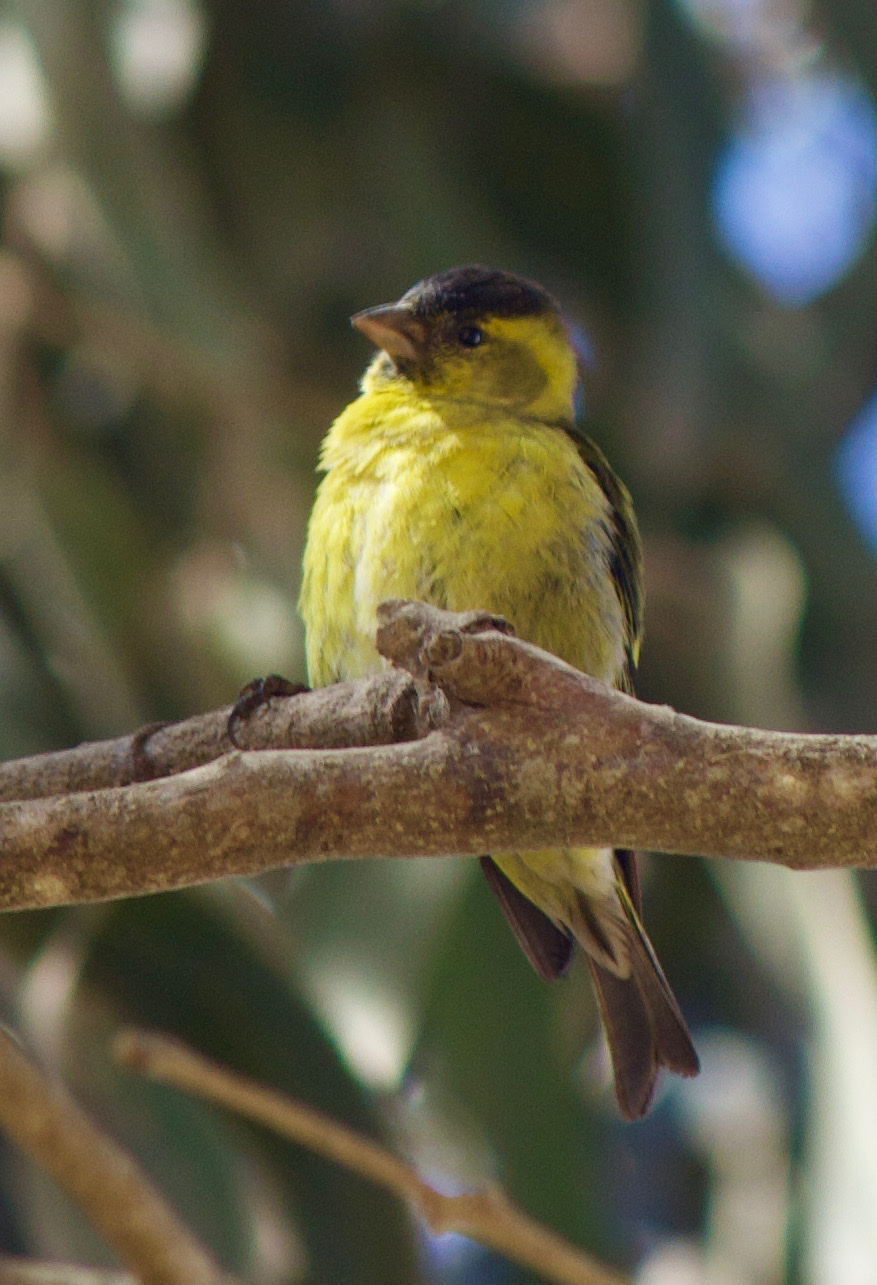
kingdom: Animalia
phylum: Chordata
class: Aves
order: Passeriformes
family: Fringillidae
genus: Spinus
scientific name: Spinus barbatus
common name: Black-chinned siskin
